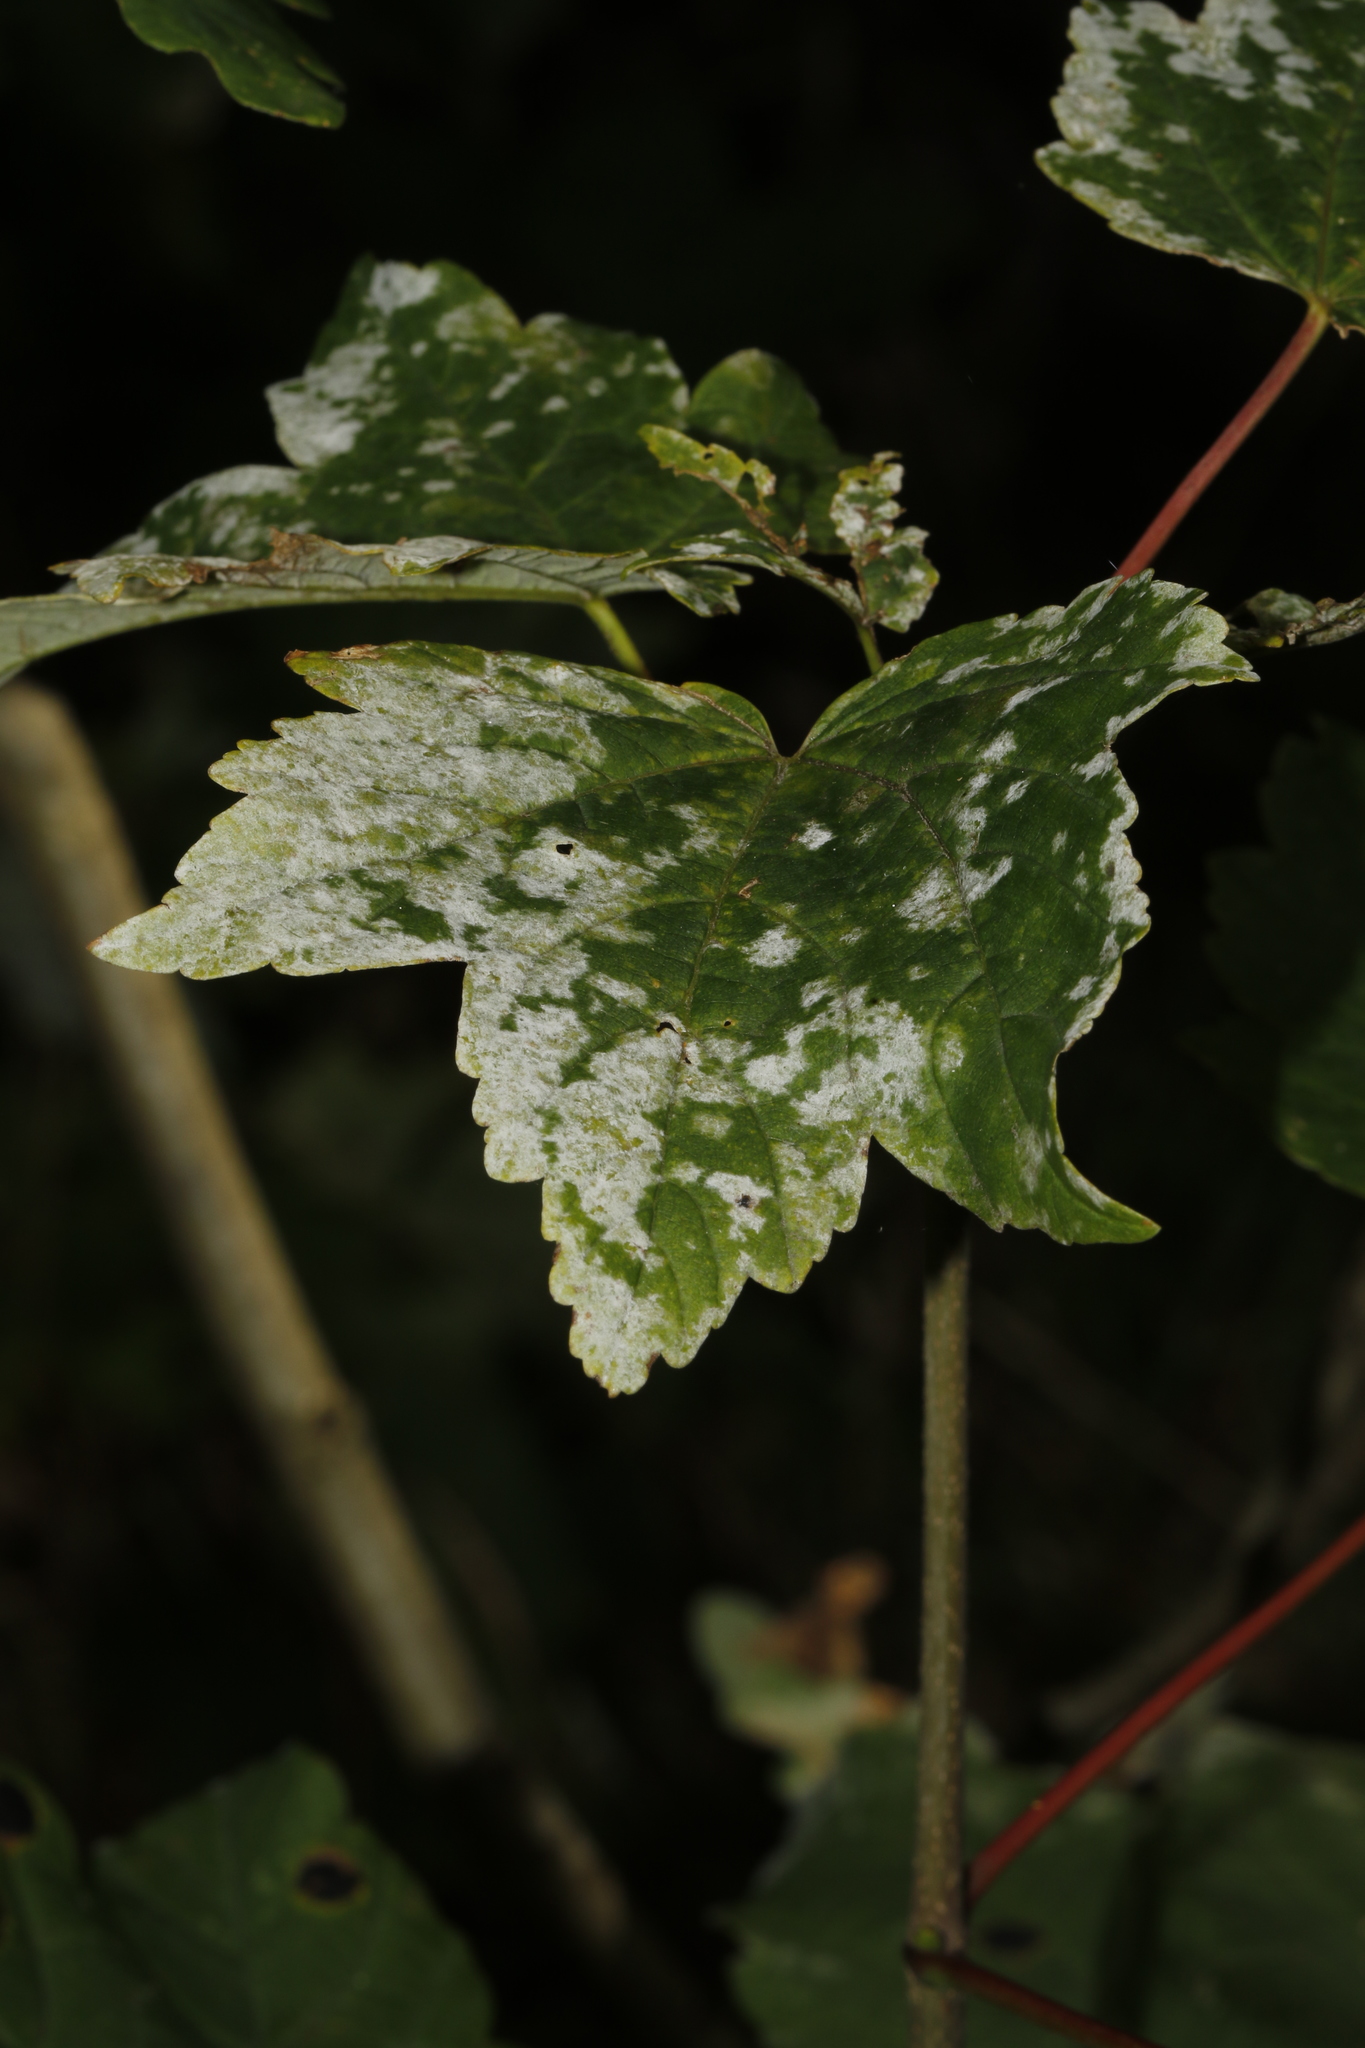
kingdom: Fungi
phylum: Ascomycota
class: Leotiomycetes
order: Helotiales
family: Erysiphaceae
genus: Sawadaea
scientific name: Sawadaea bicornis
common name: Maple mildew
